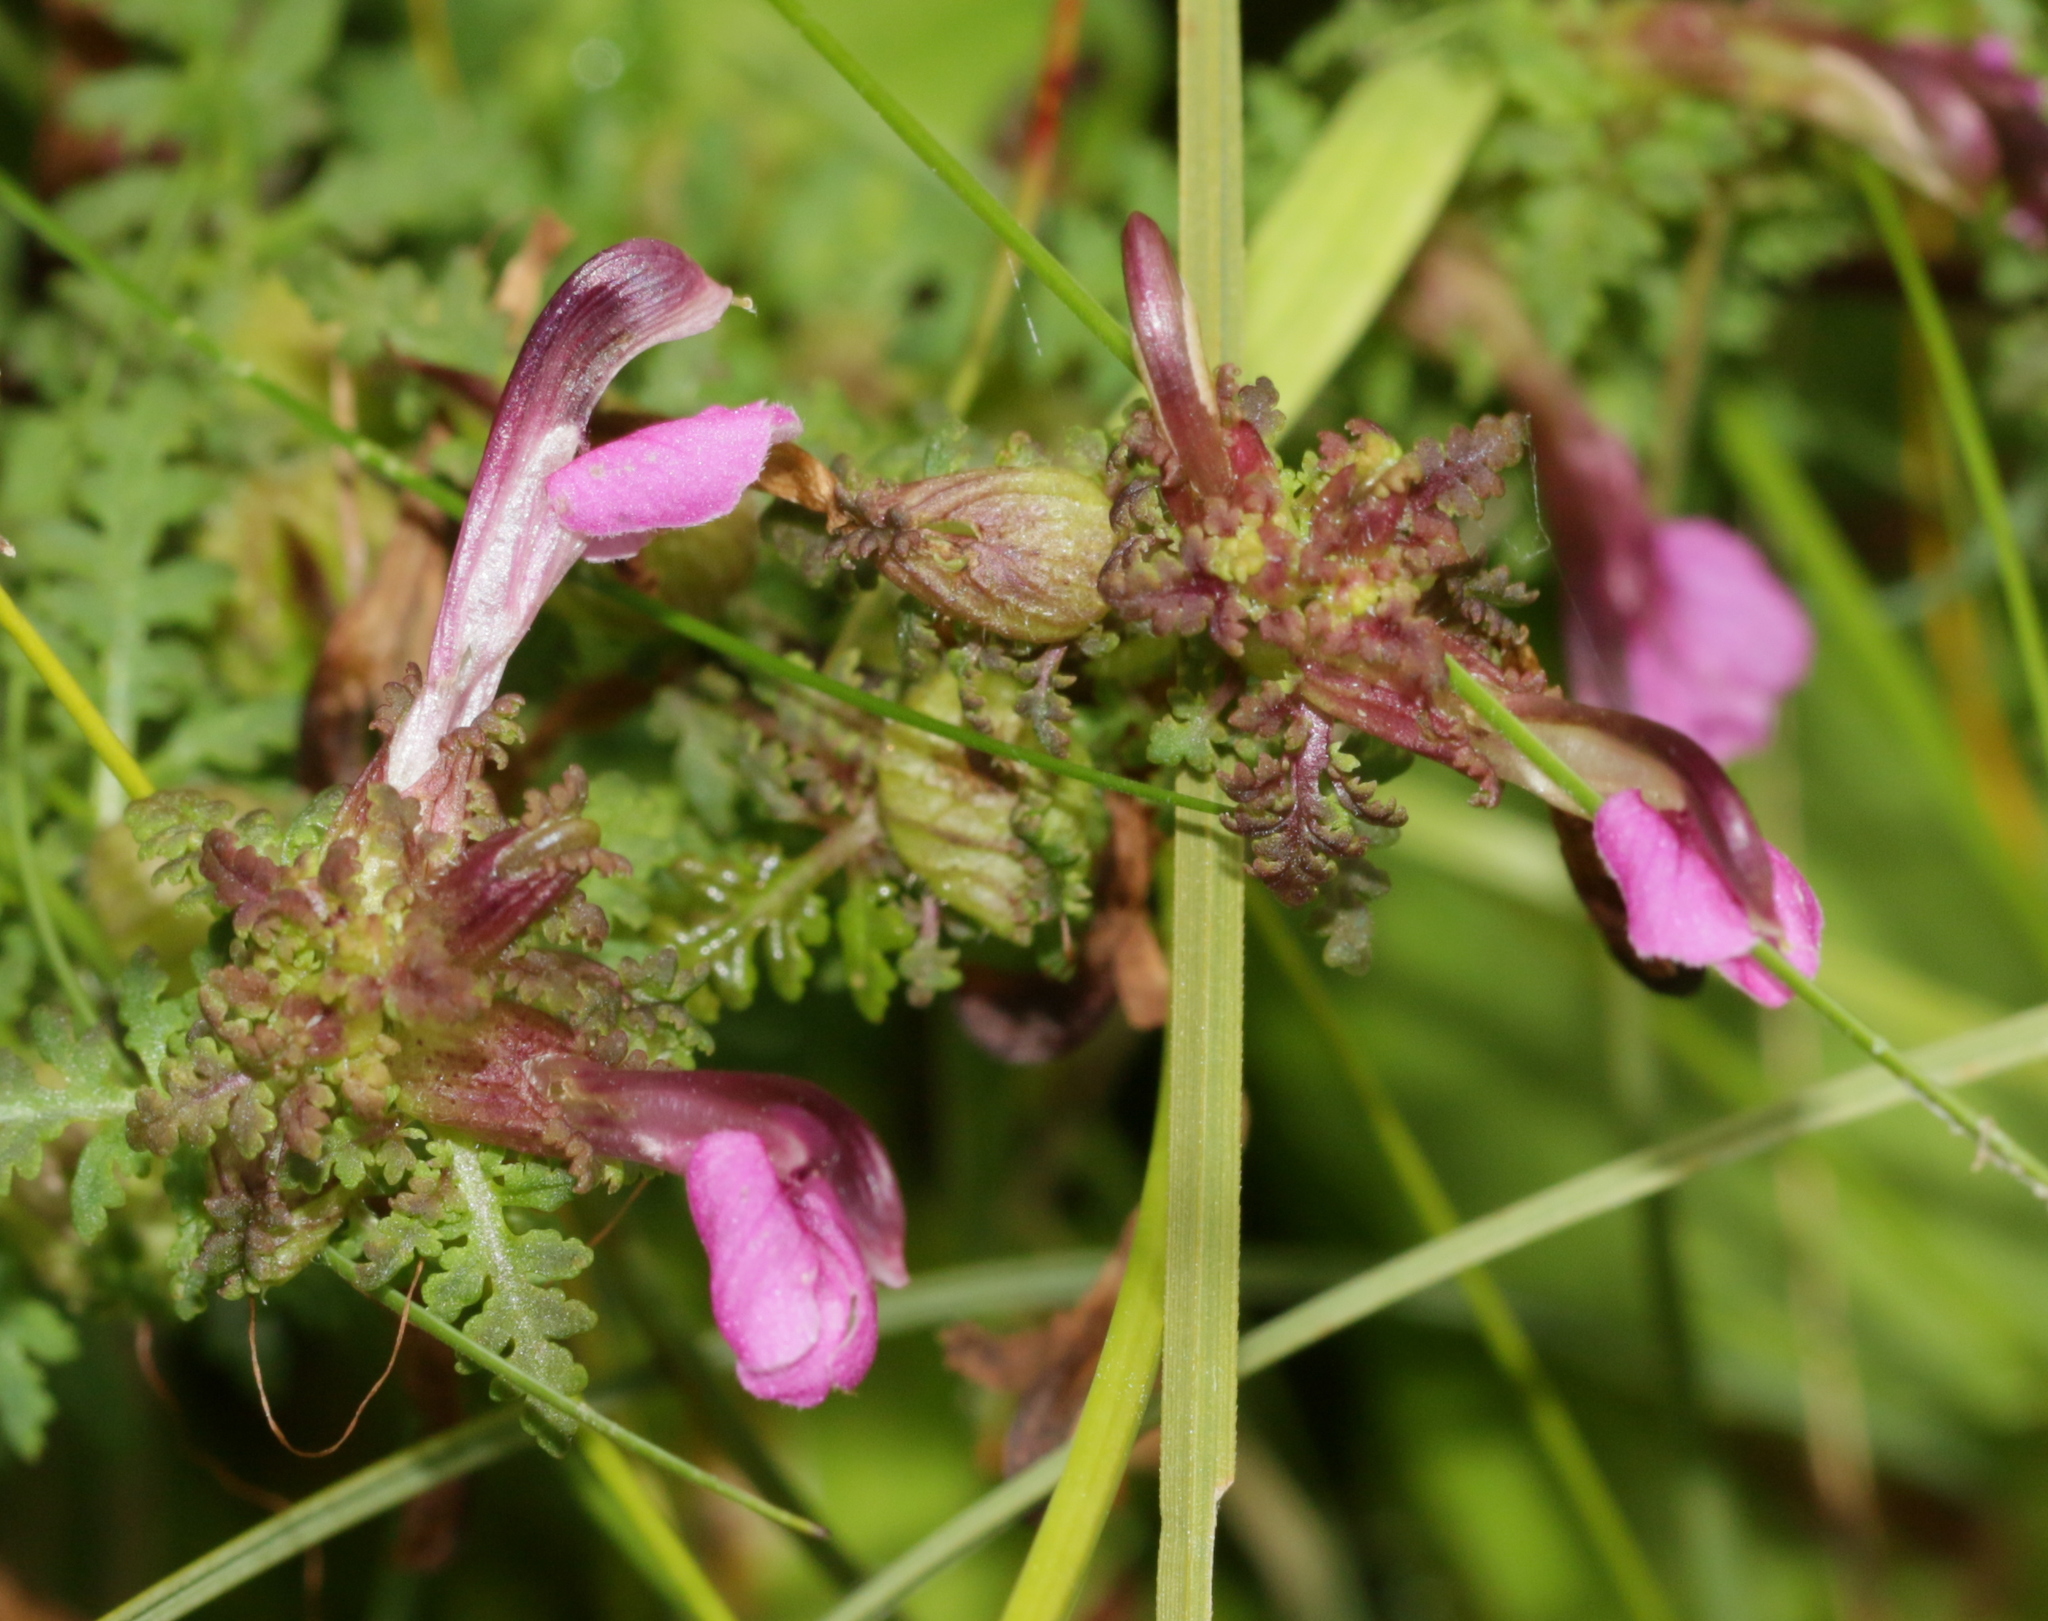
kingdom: Plantae
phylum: Tracheophyta
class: Magnoliopsida
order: Lamiales
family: Orobanchaceae
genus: Pedicularis
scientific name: Pedicularis palustris
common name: Marsh lousewort
